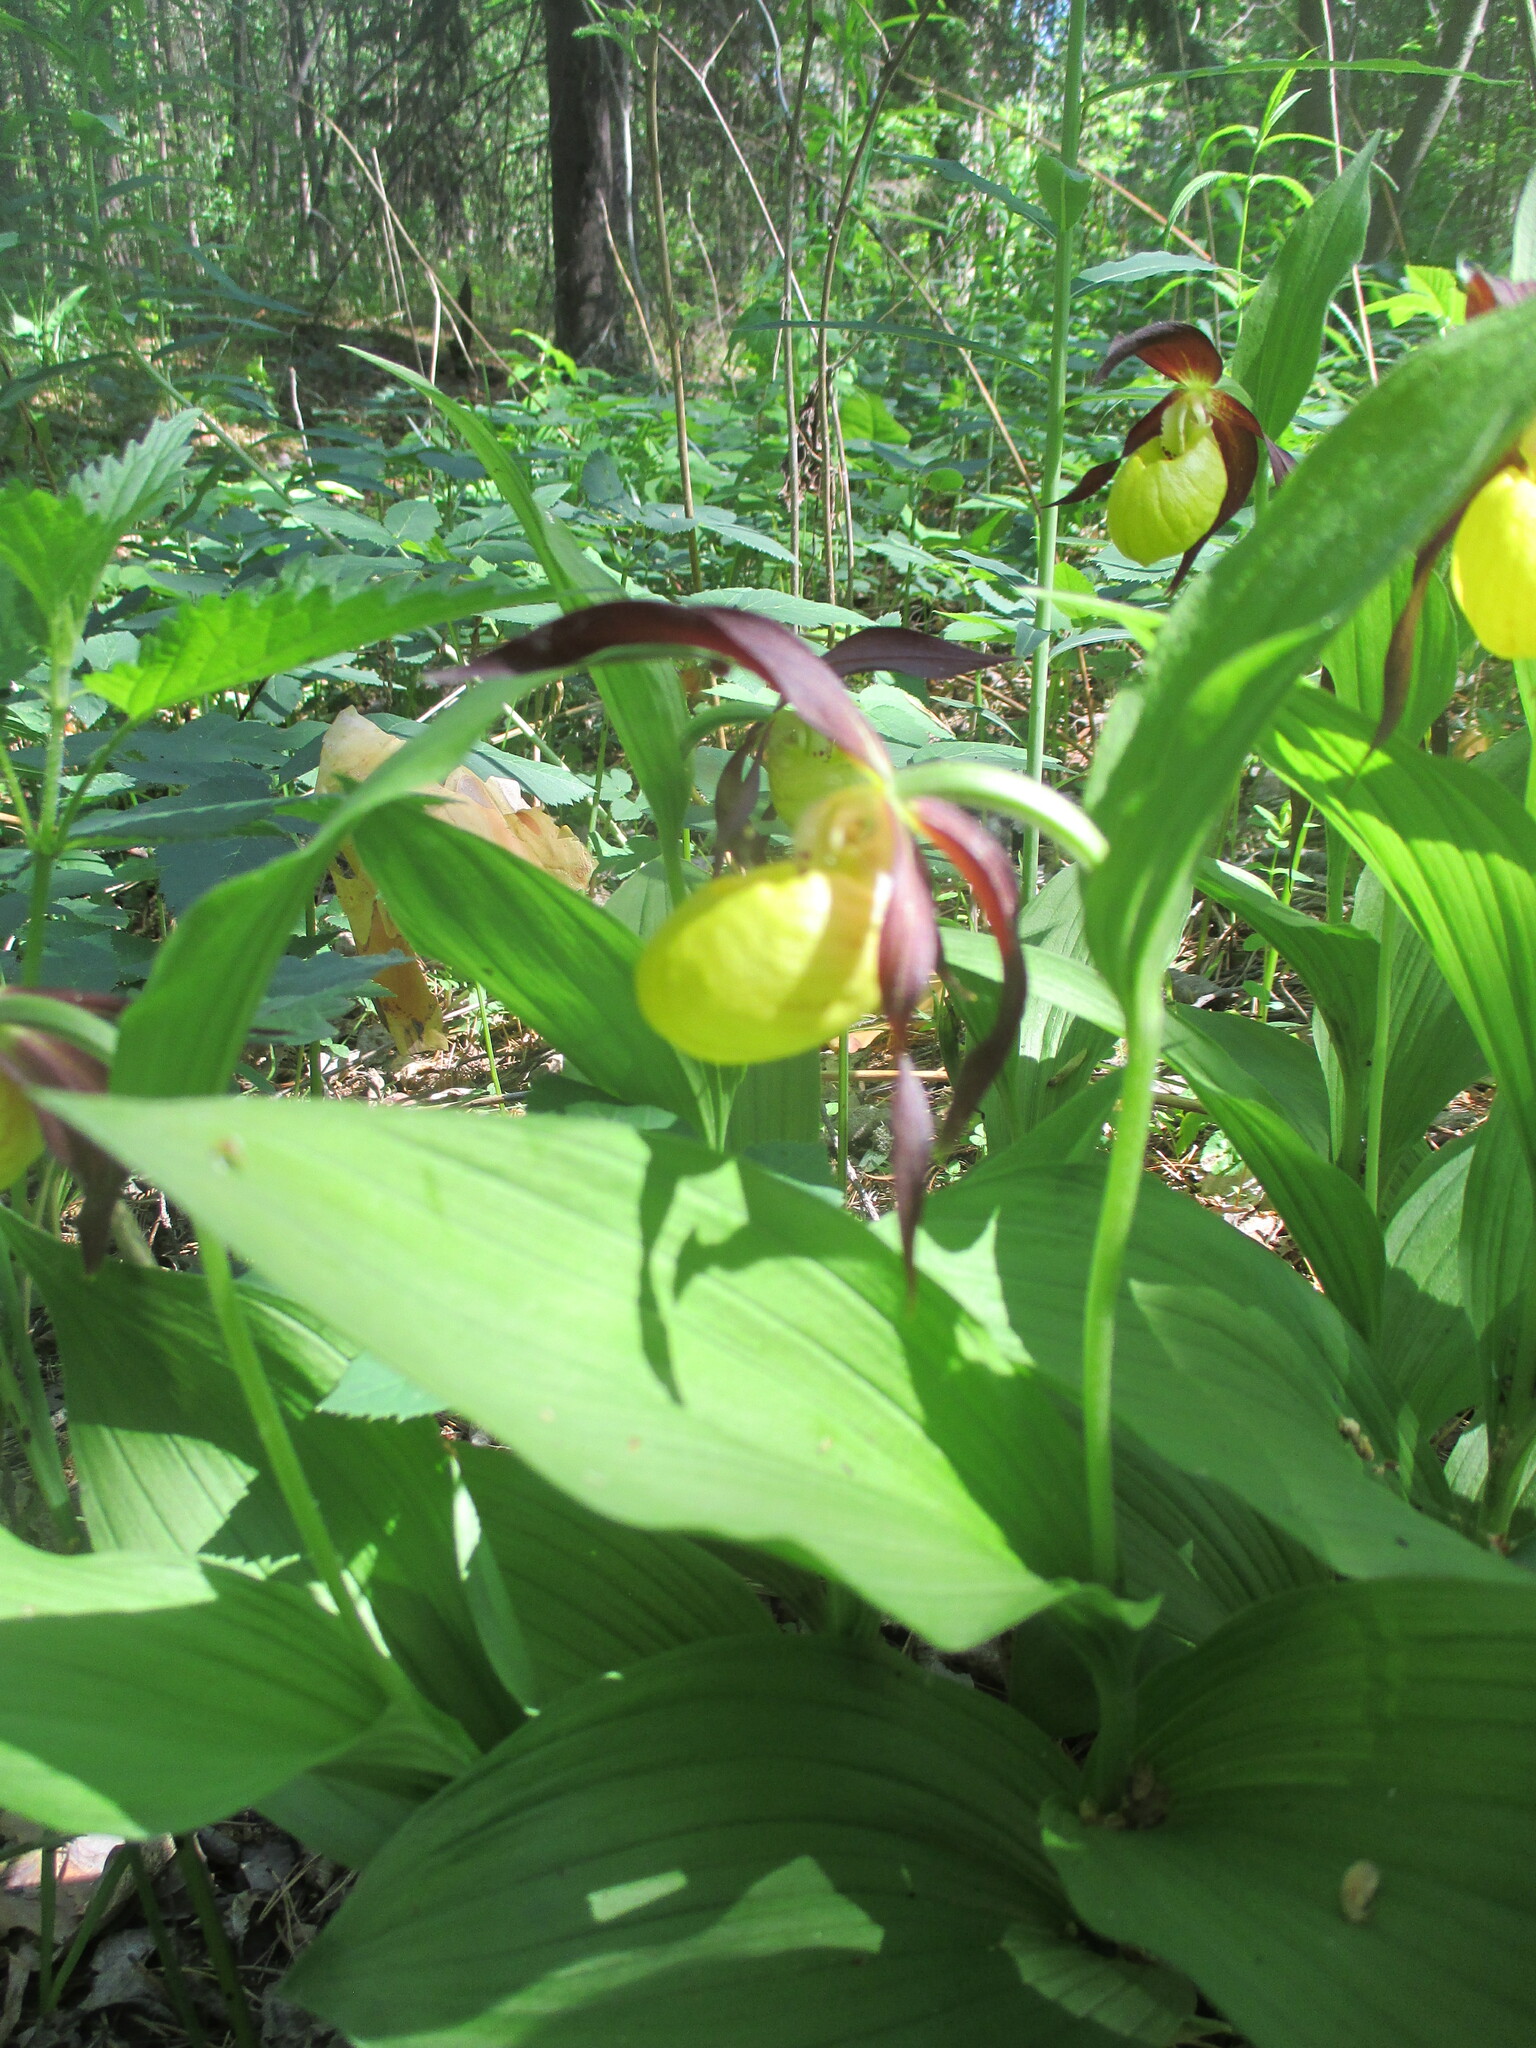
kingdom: Plantae
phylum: Tracheophyta
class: Liliopsida
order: Asparagales
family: Orchidaceae
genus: Cypripedium
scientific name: Cypripedium calceolus
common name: Lady's-slipper
